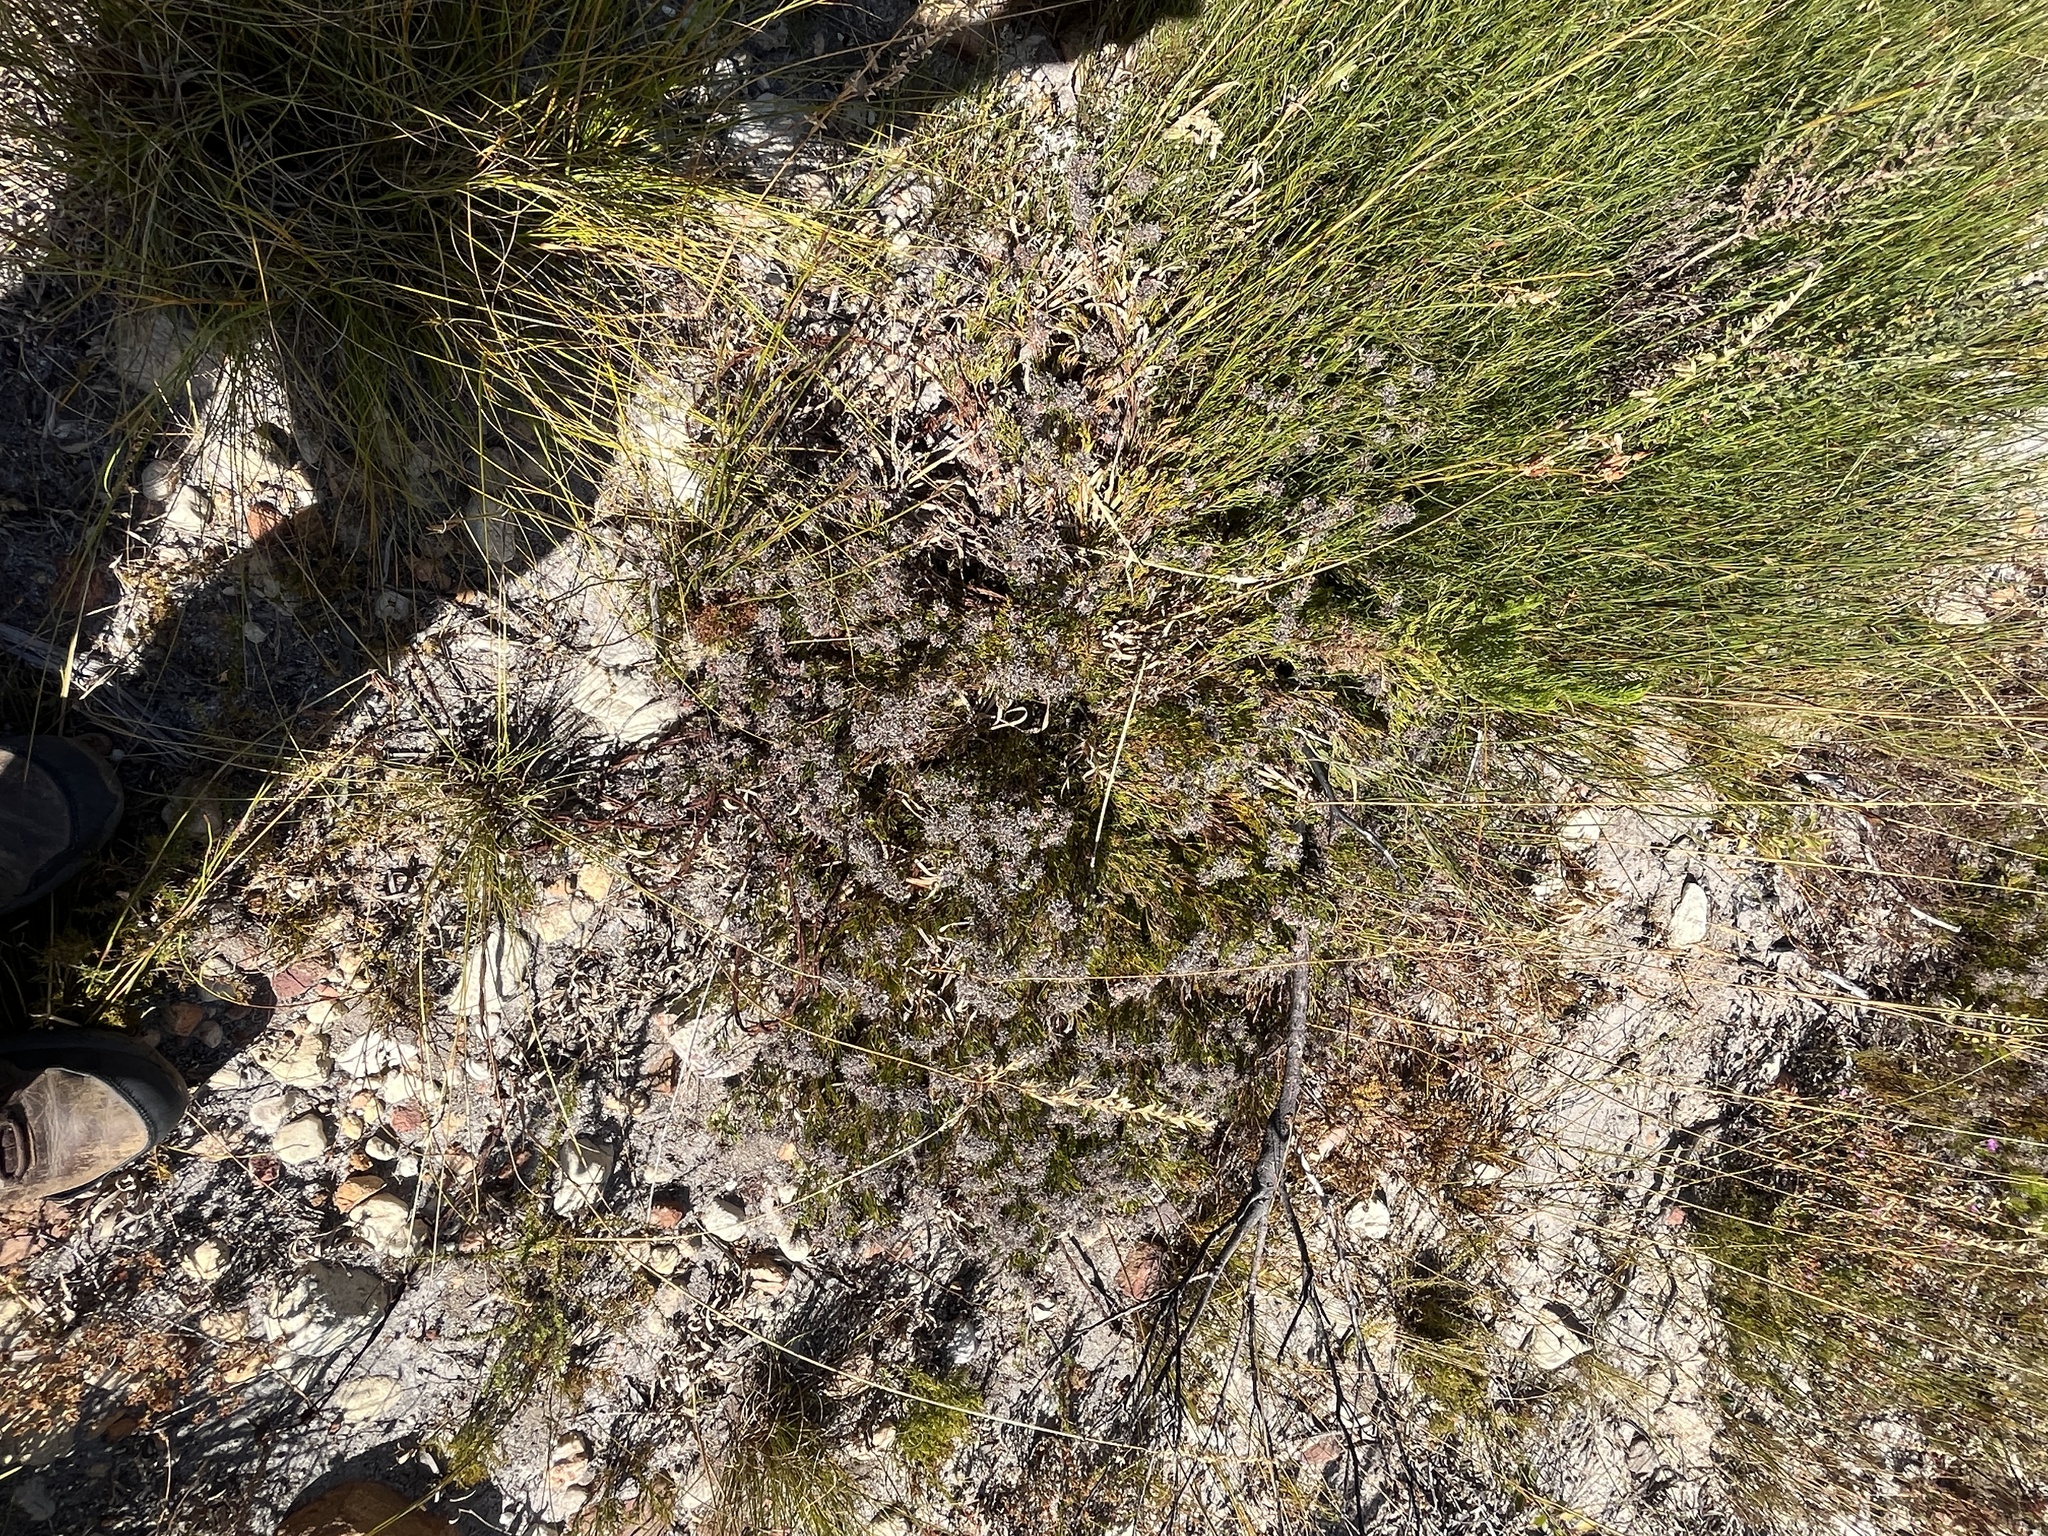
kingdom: Plantae
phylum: Tracheophyta
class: Magnoliopsida
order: Proteales
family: Proteaceae
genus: Serruria
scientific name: Serruria
